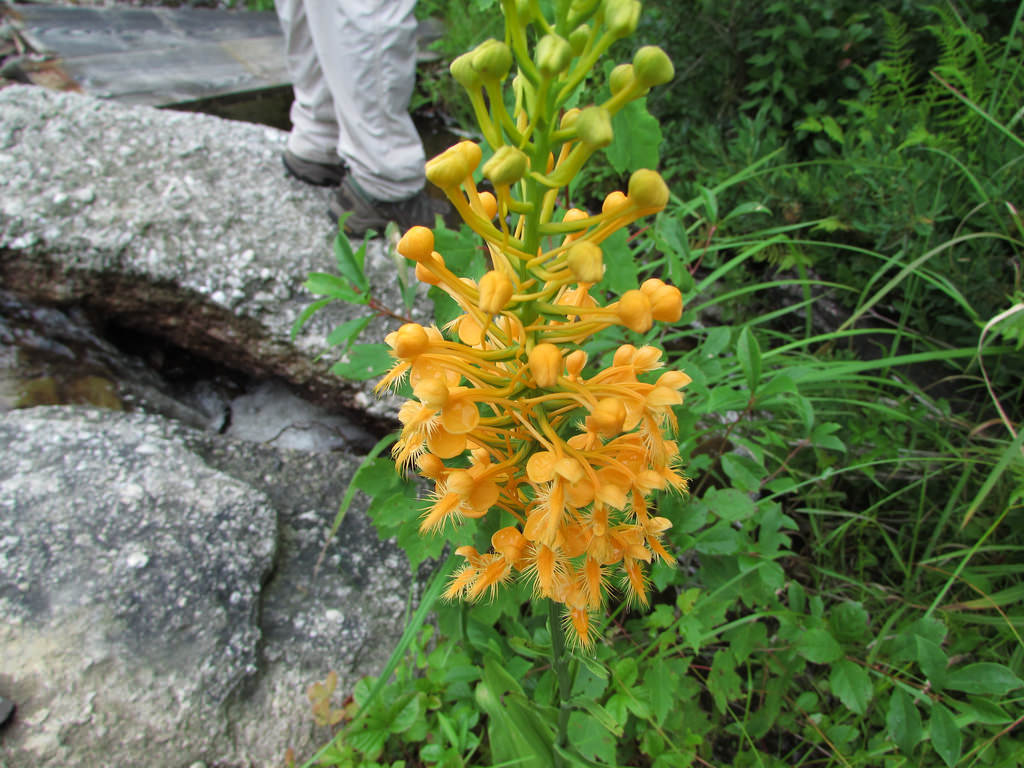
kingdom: Plantae
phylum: Tracheophyta
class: Liliopsida
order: Asparagales
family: Orchidaceae
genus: Platanthera
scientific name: Platanthera ciliaris
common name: Yellow fringed orchid
